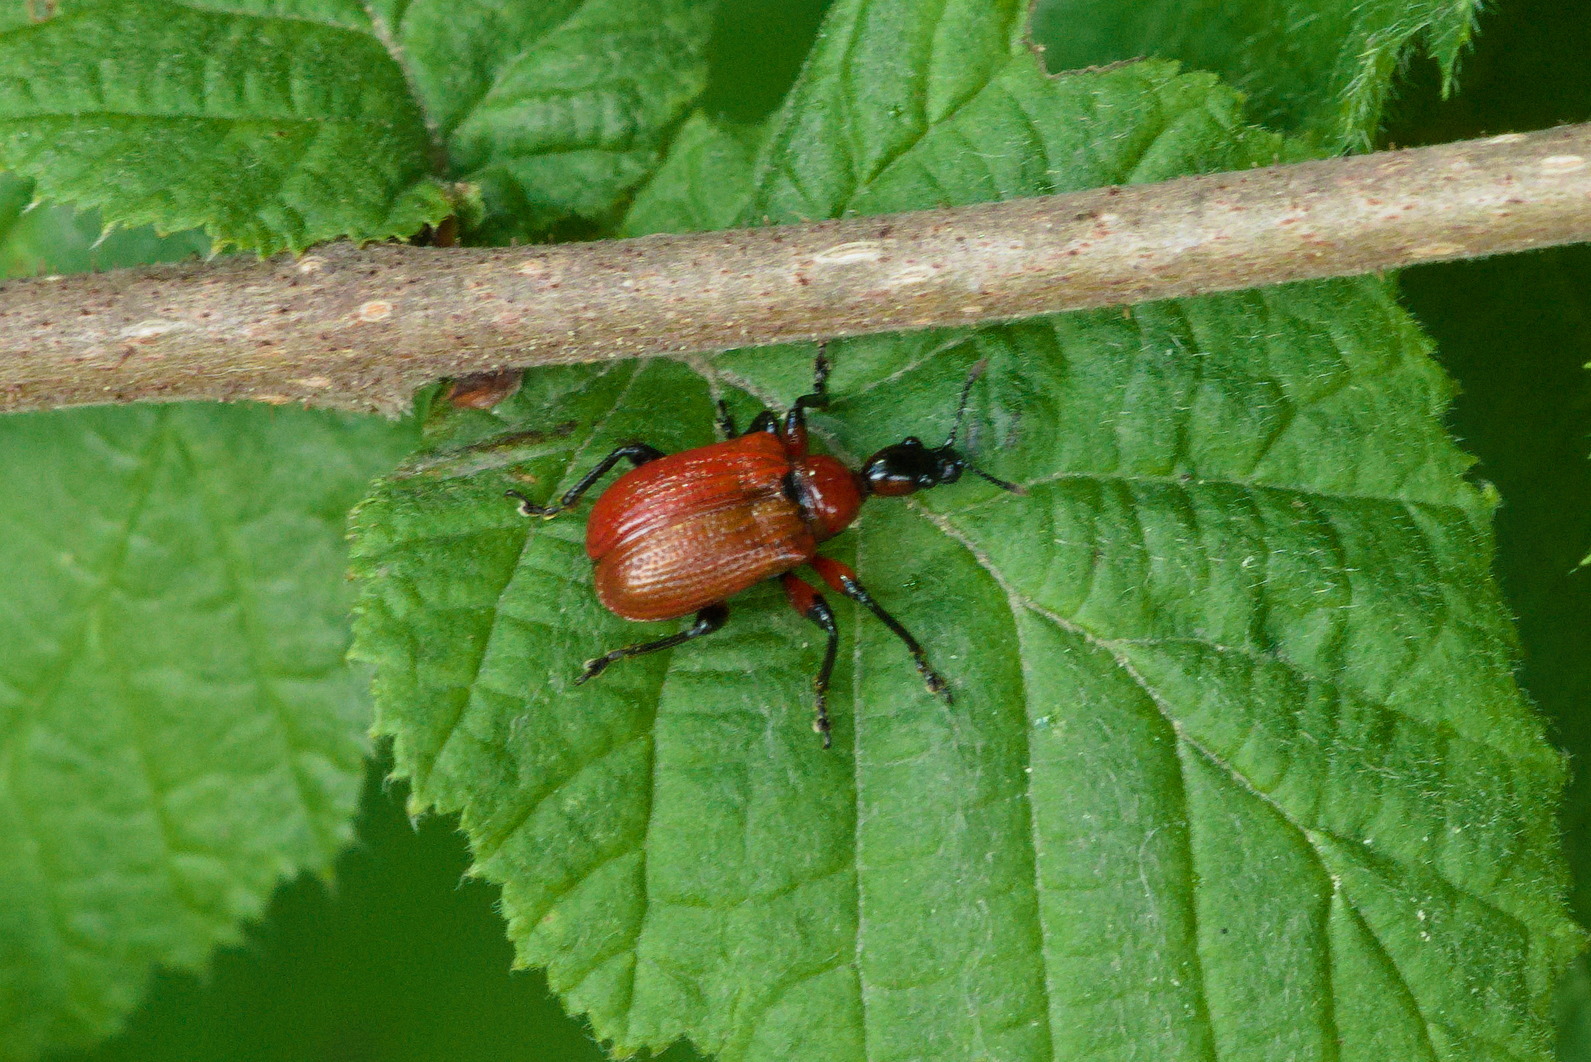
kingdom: Animalia
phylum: Arthropoda
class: Insecta
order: Coleoptera
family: Attelabidae
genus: Apoderus
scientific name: Apoderus coryli
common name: Hazel leaf roller
